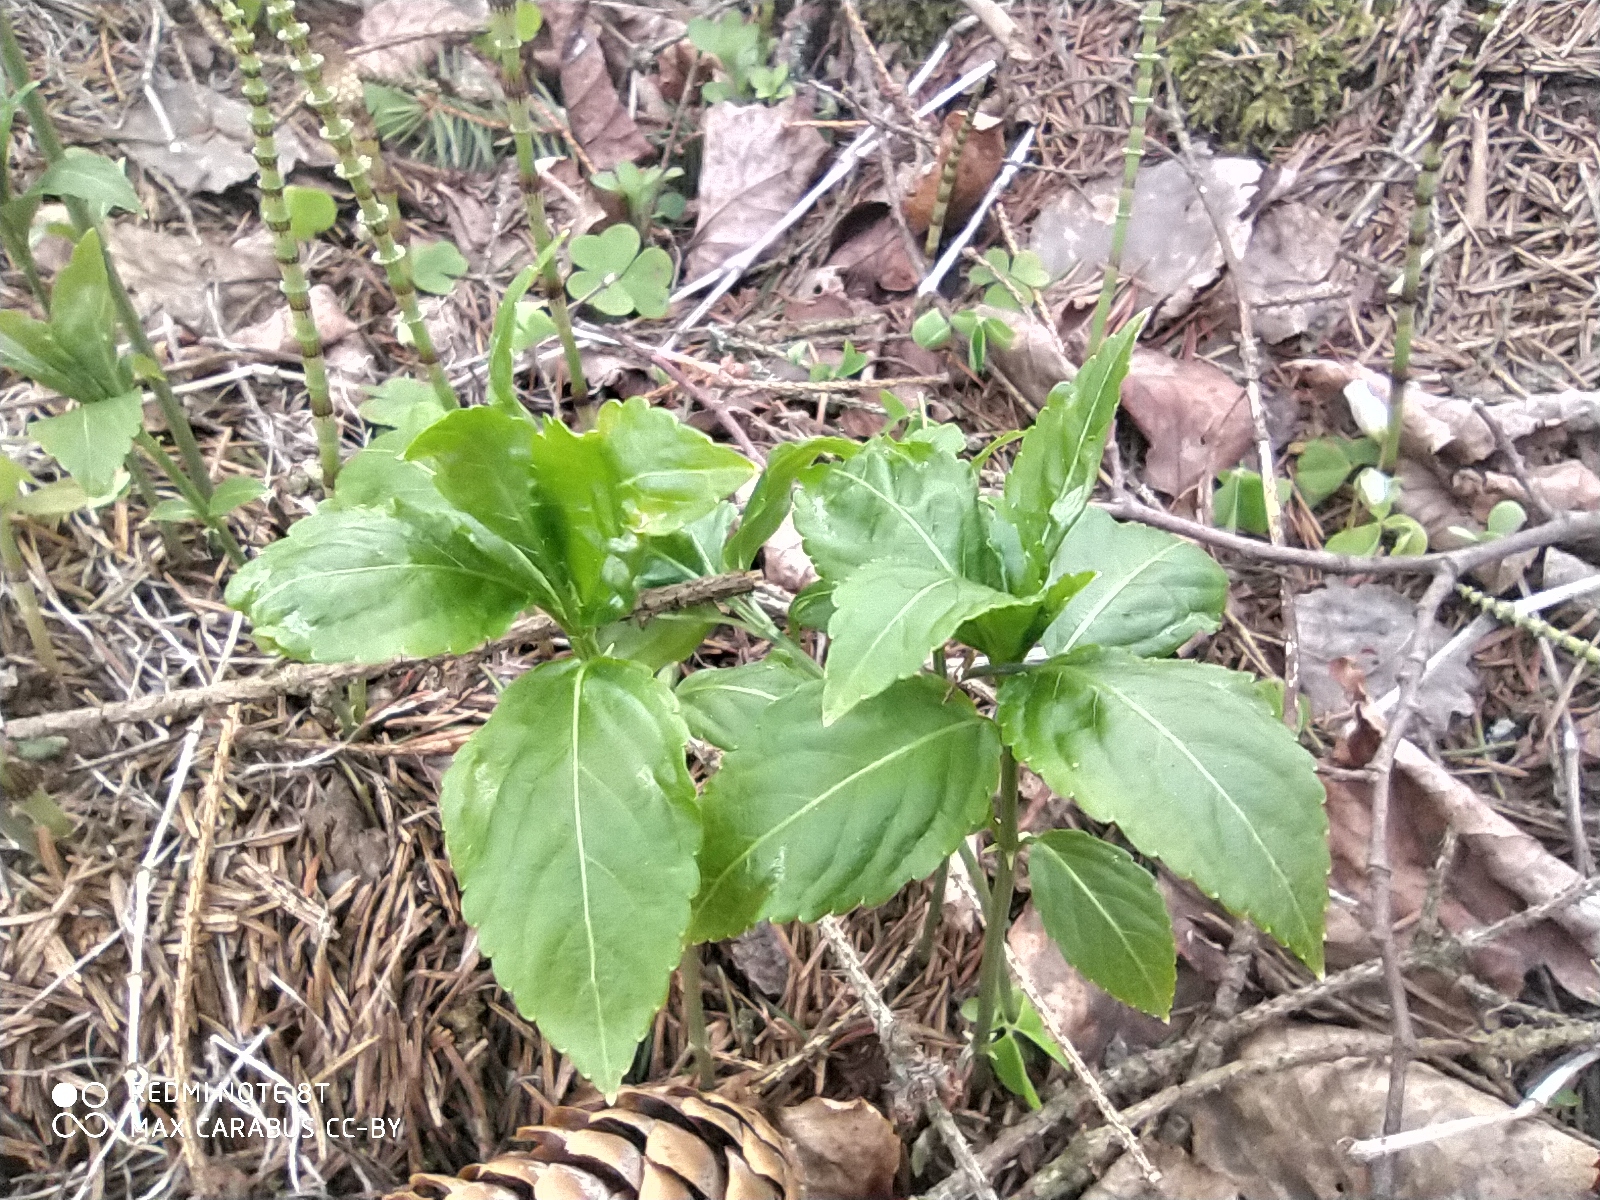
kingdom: Plantae
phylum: Tracheophyta
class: Magnoliopsida
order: Malpighiales
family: Euphorbiaceae
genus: Mercurialis
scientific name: Mercurialis perennis
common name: Dog mercury
